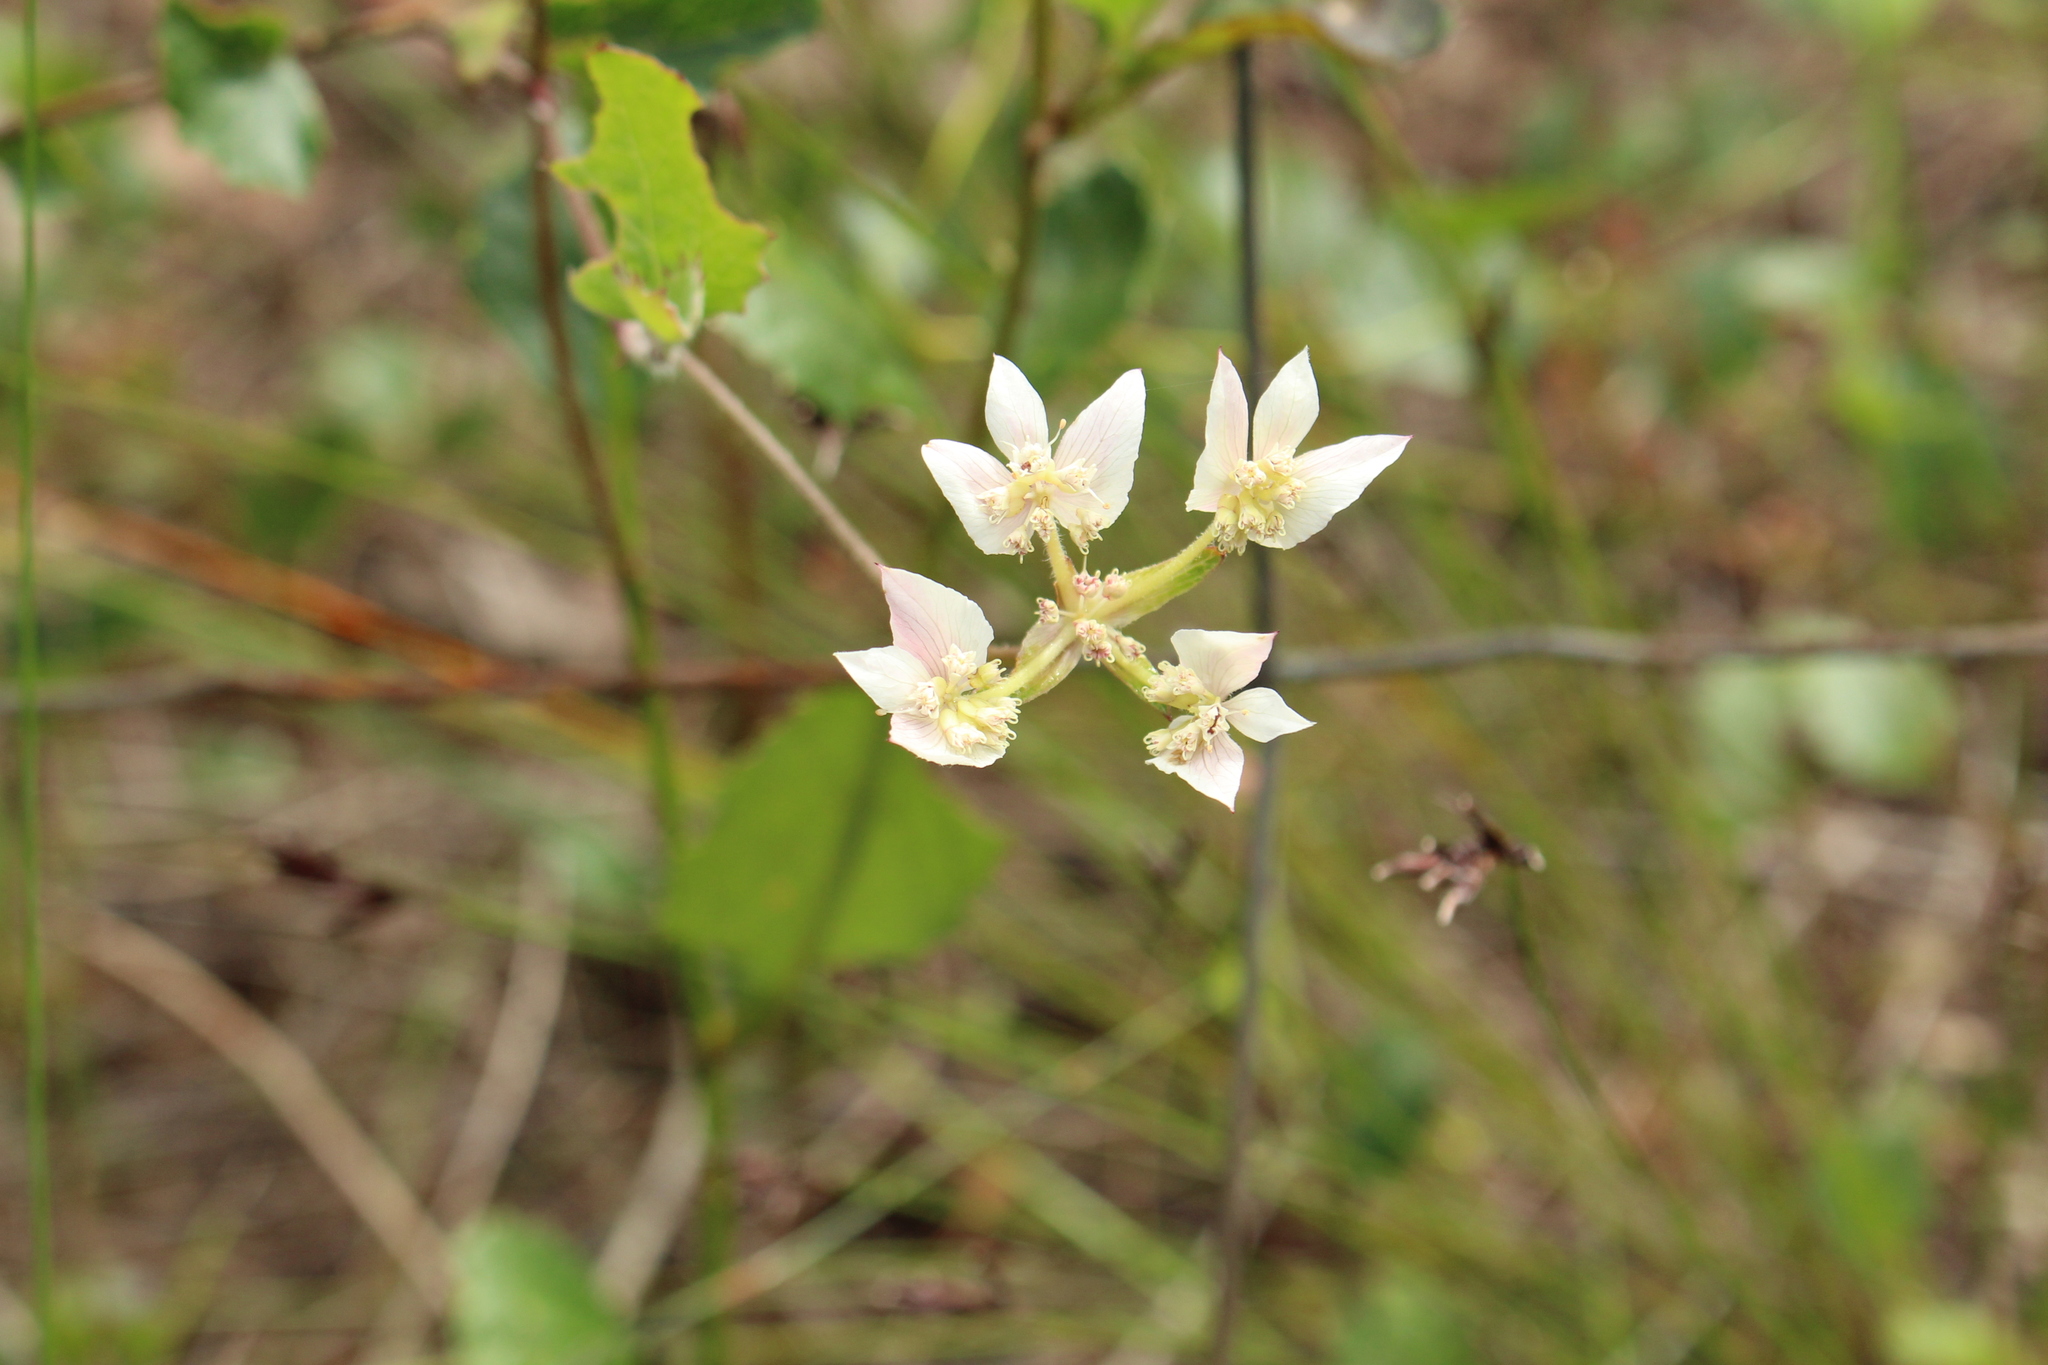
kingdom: Plantae
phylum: Tracheophyta
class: Magnoliopsida
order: Apiales
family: Apiaceae
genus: Xanthosia
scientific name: Xanthosia rotundifolia
